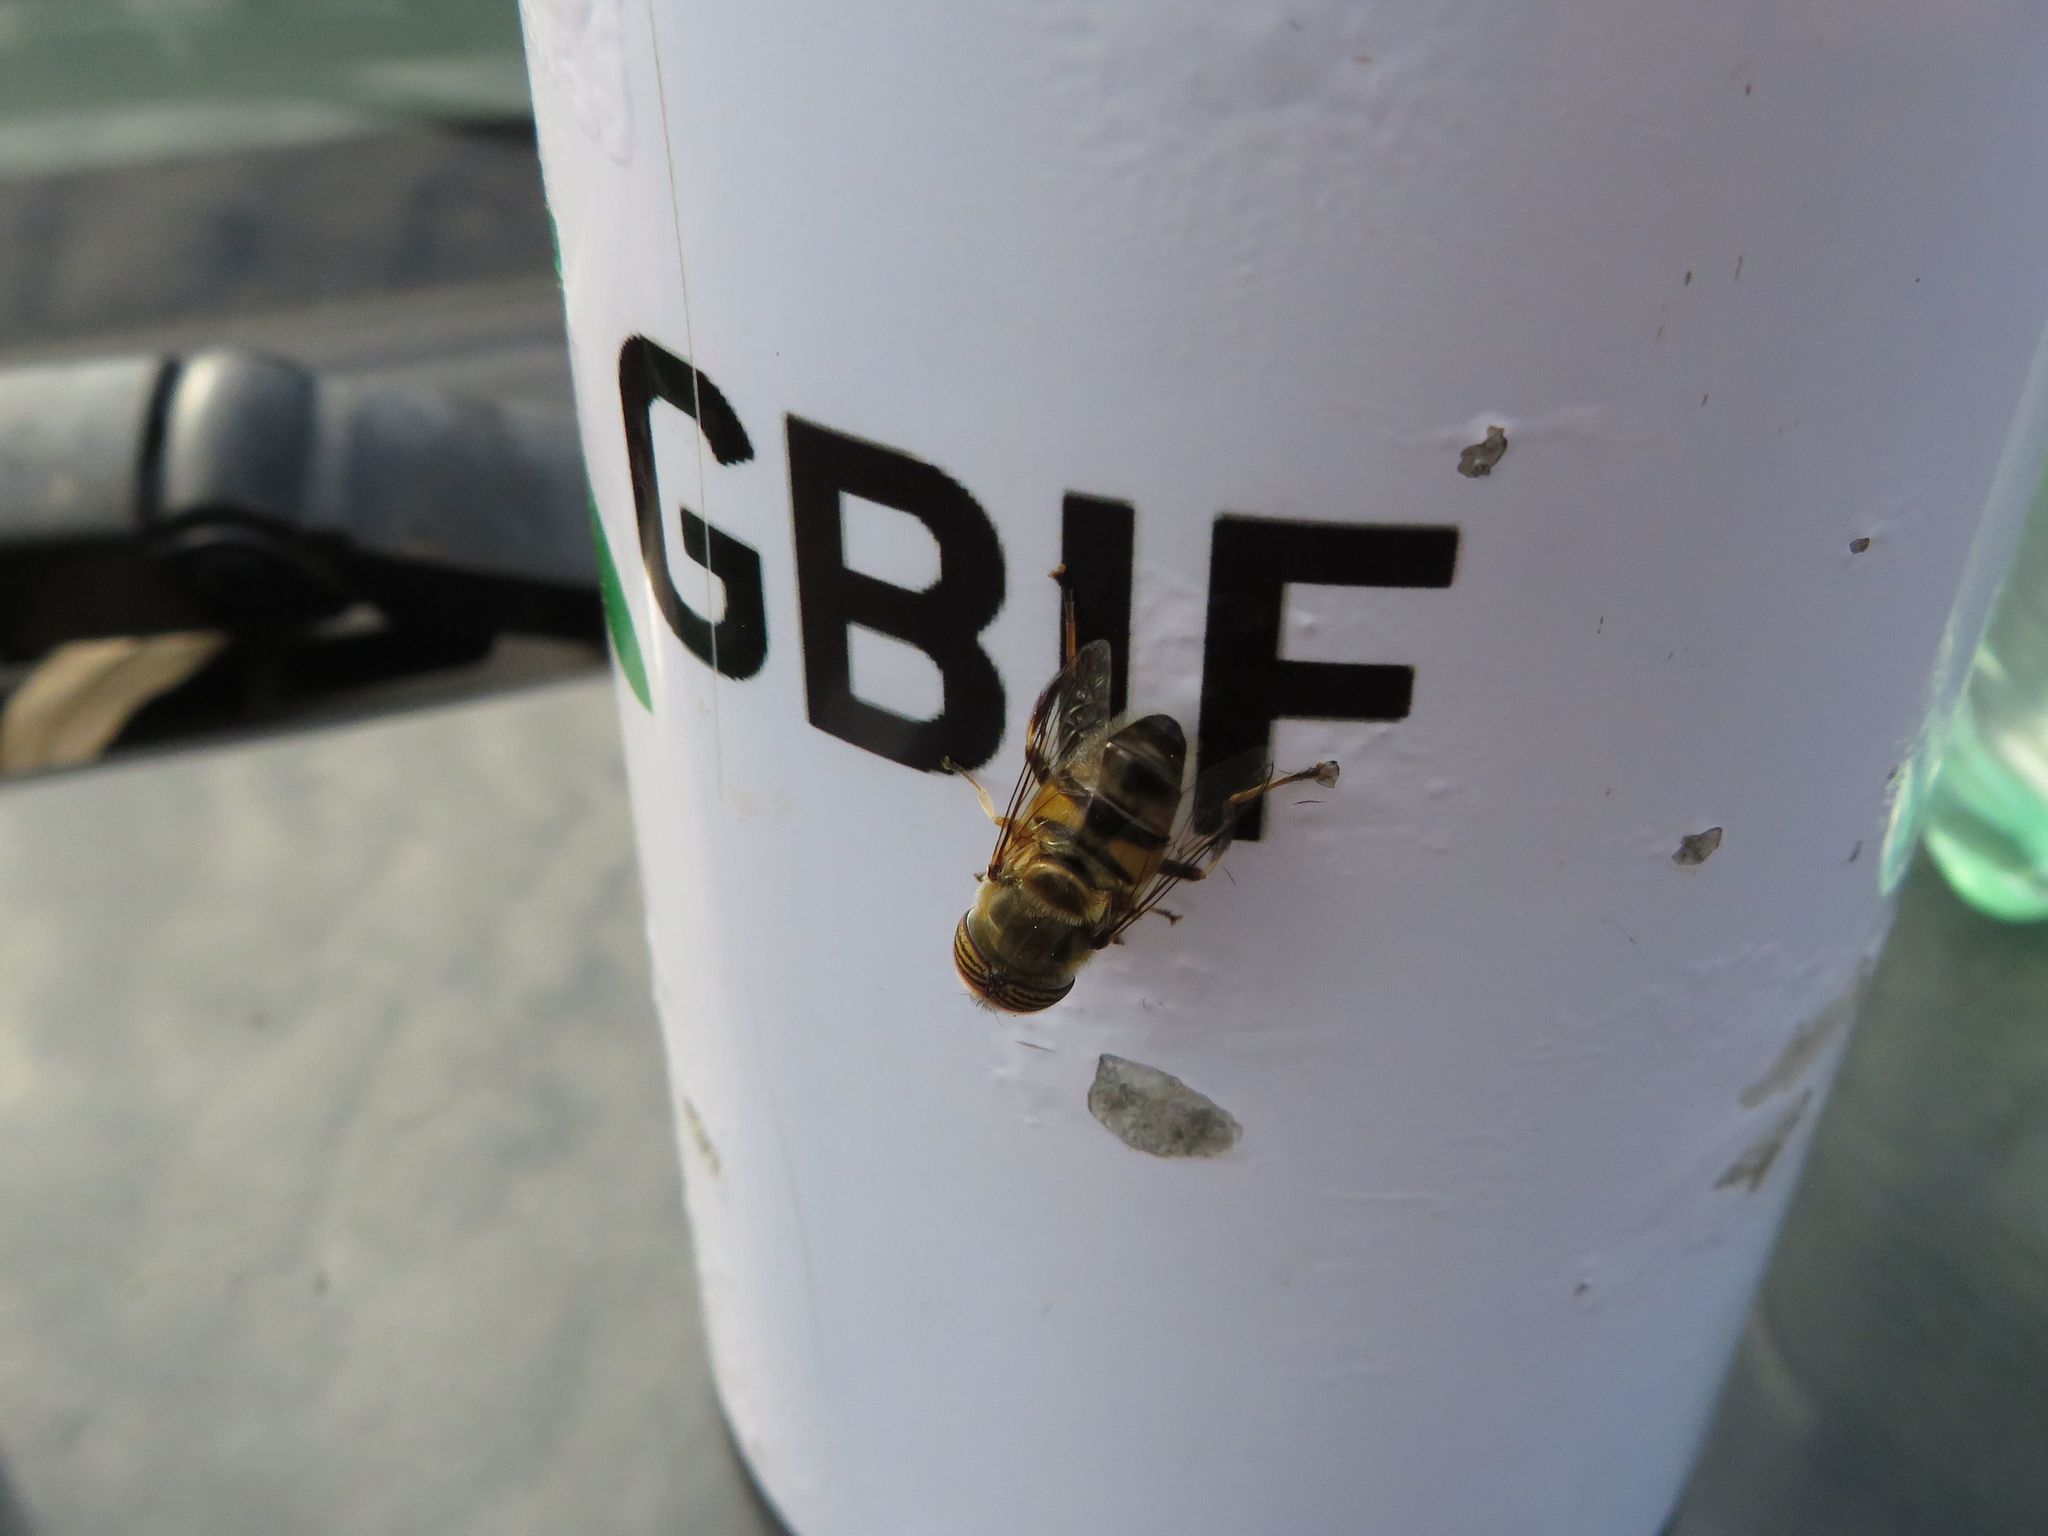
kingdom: Animalia
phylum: Arthropoda
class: Insecta
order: Diptera
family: Syrphidae
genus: Eristalinus
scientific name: Eristalinus taeniops
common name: Syrphid fly
